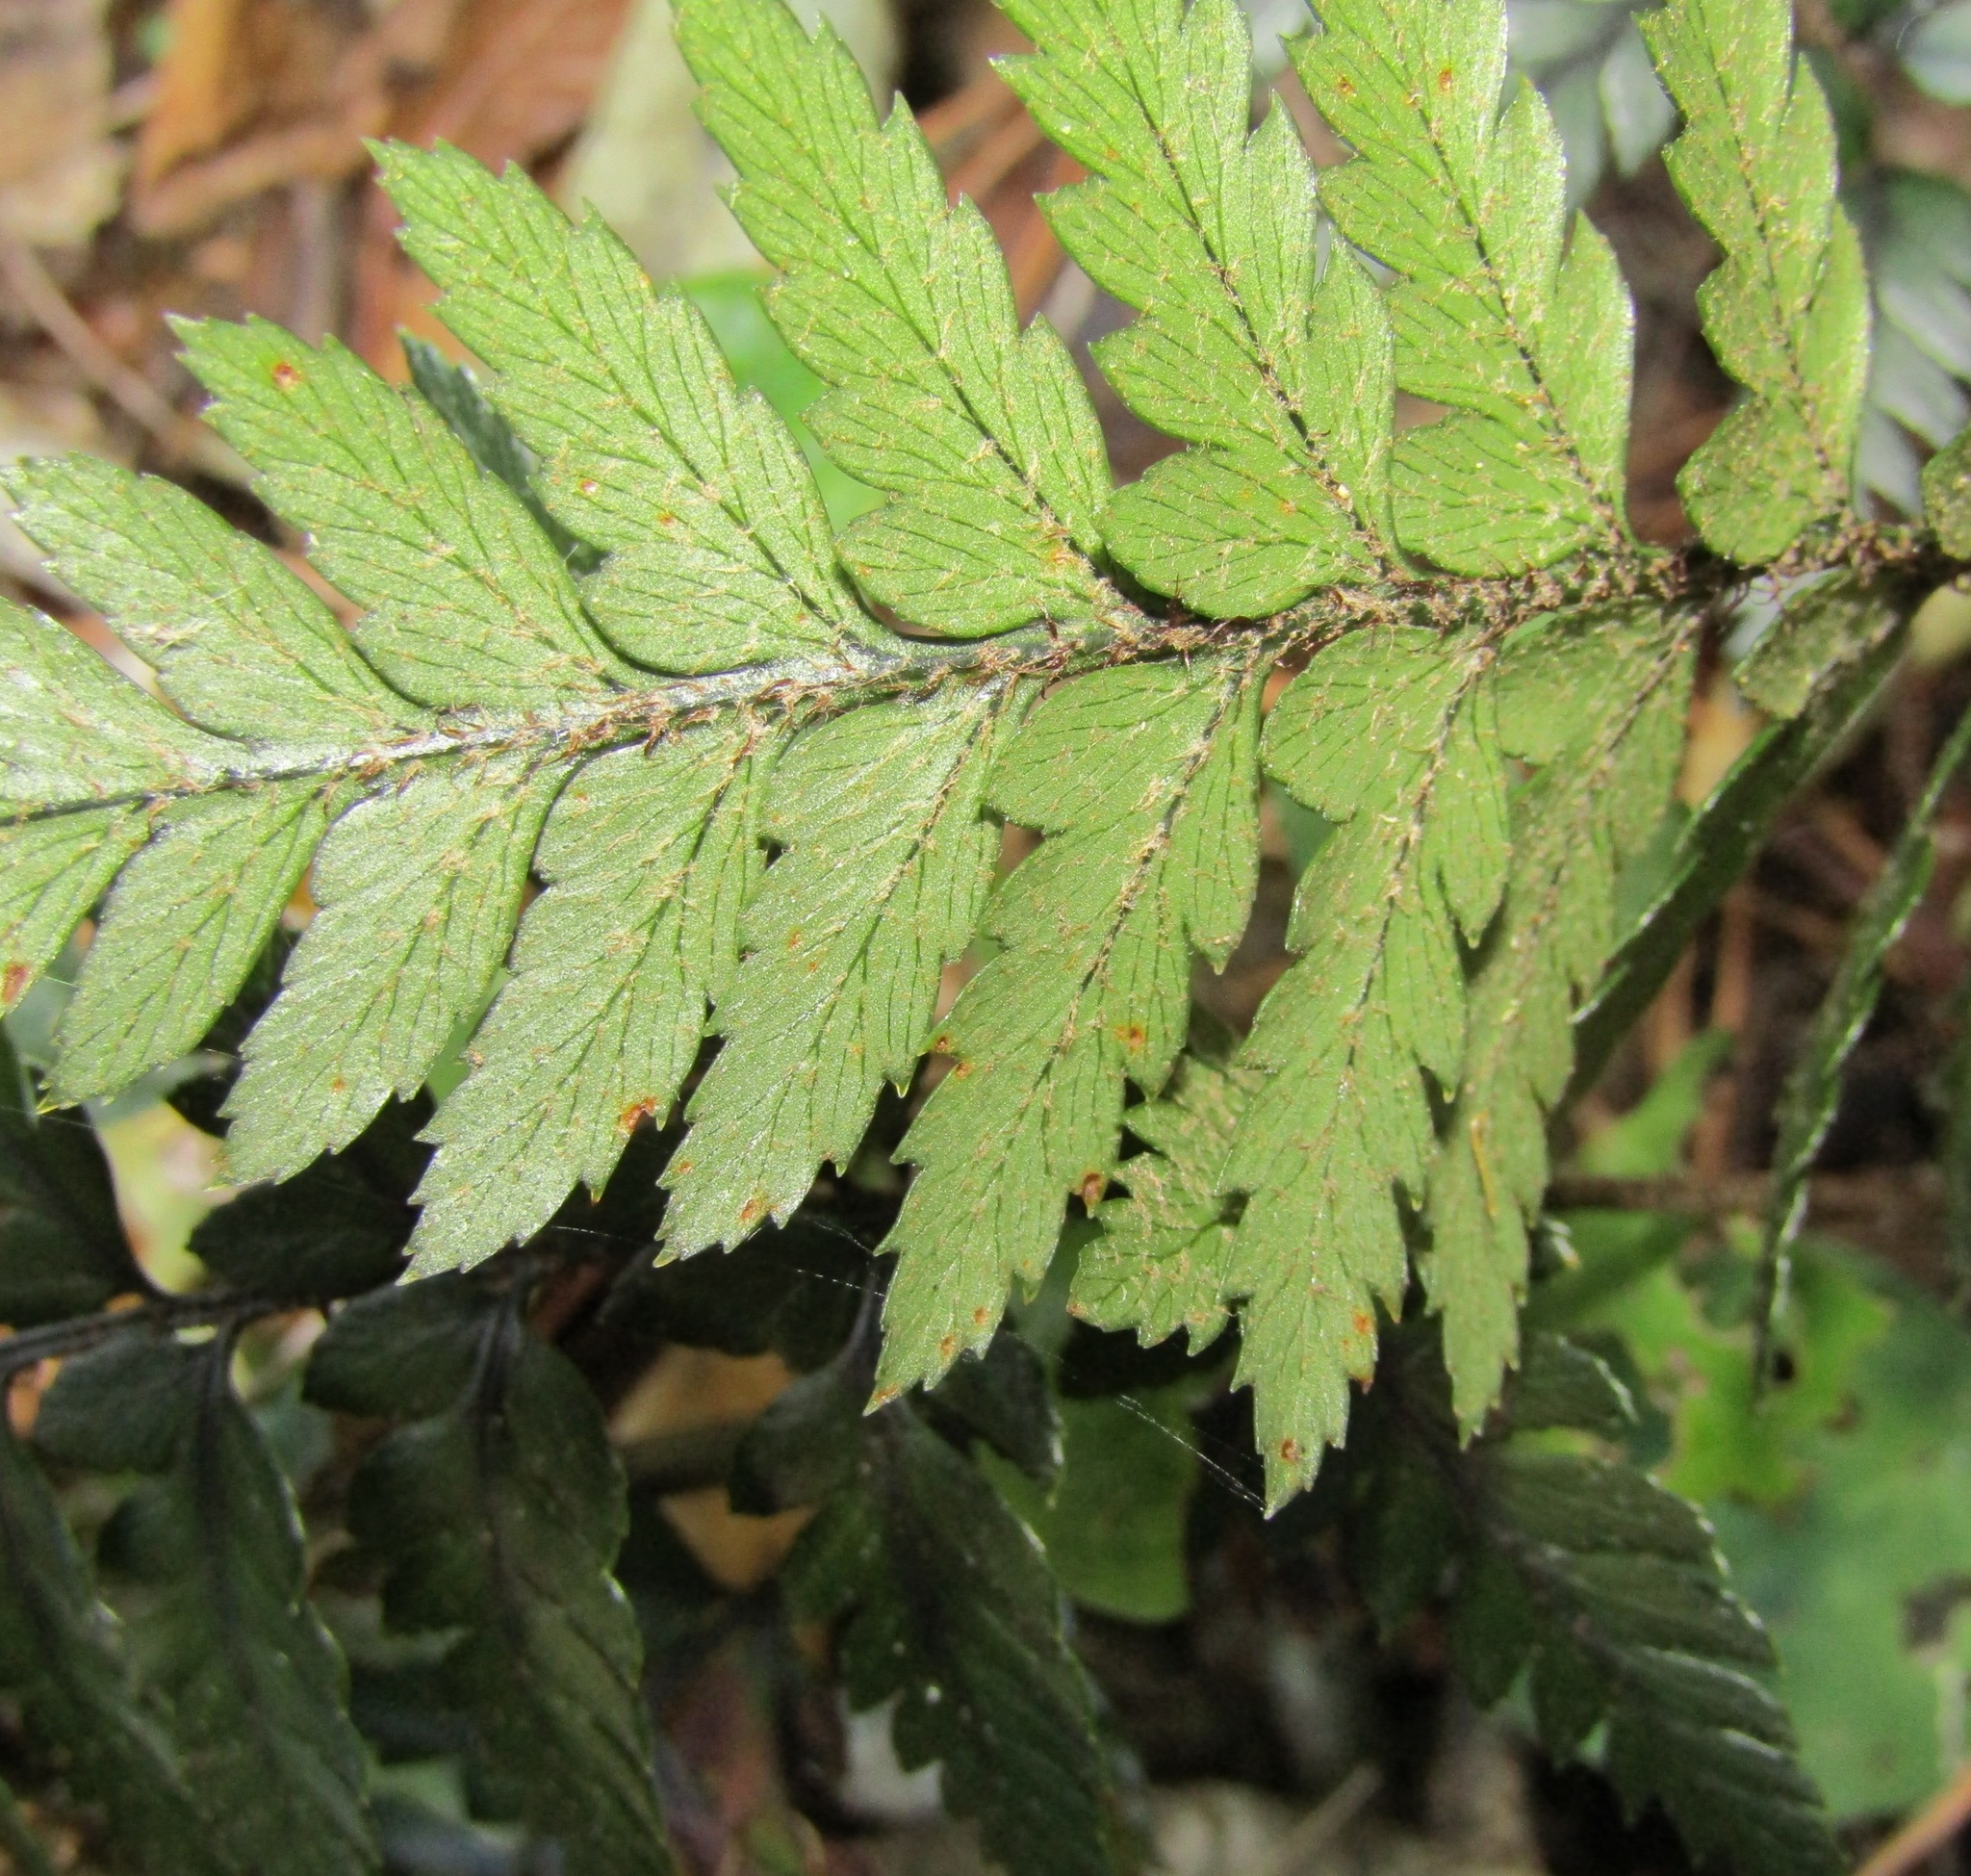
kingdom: Plantae
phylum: Tracheophyta
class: Polypodiopsida
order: Polypodiales
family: Dryopteridaceae
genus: Polystichum
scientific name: Polystichum neozelandicum
